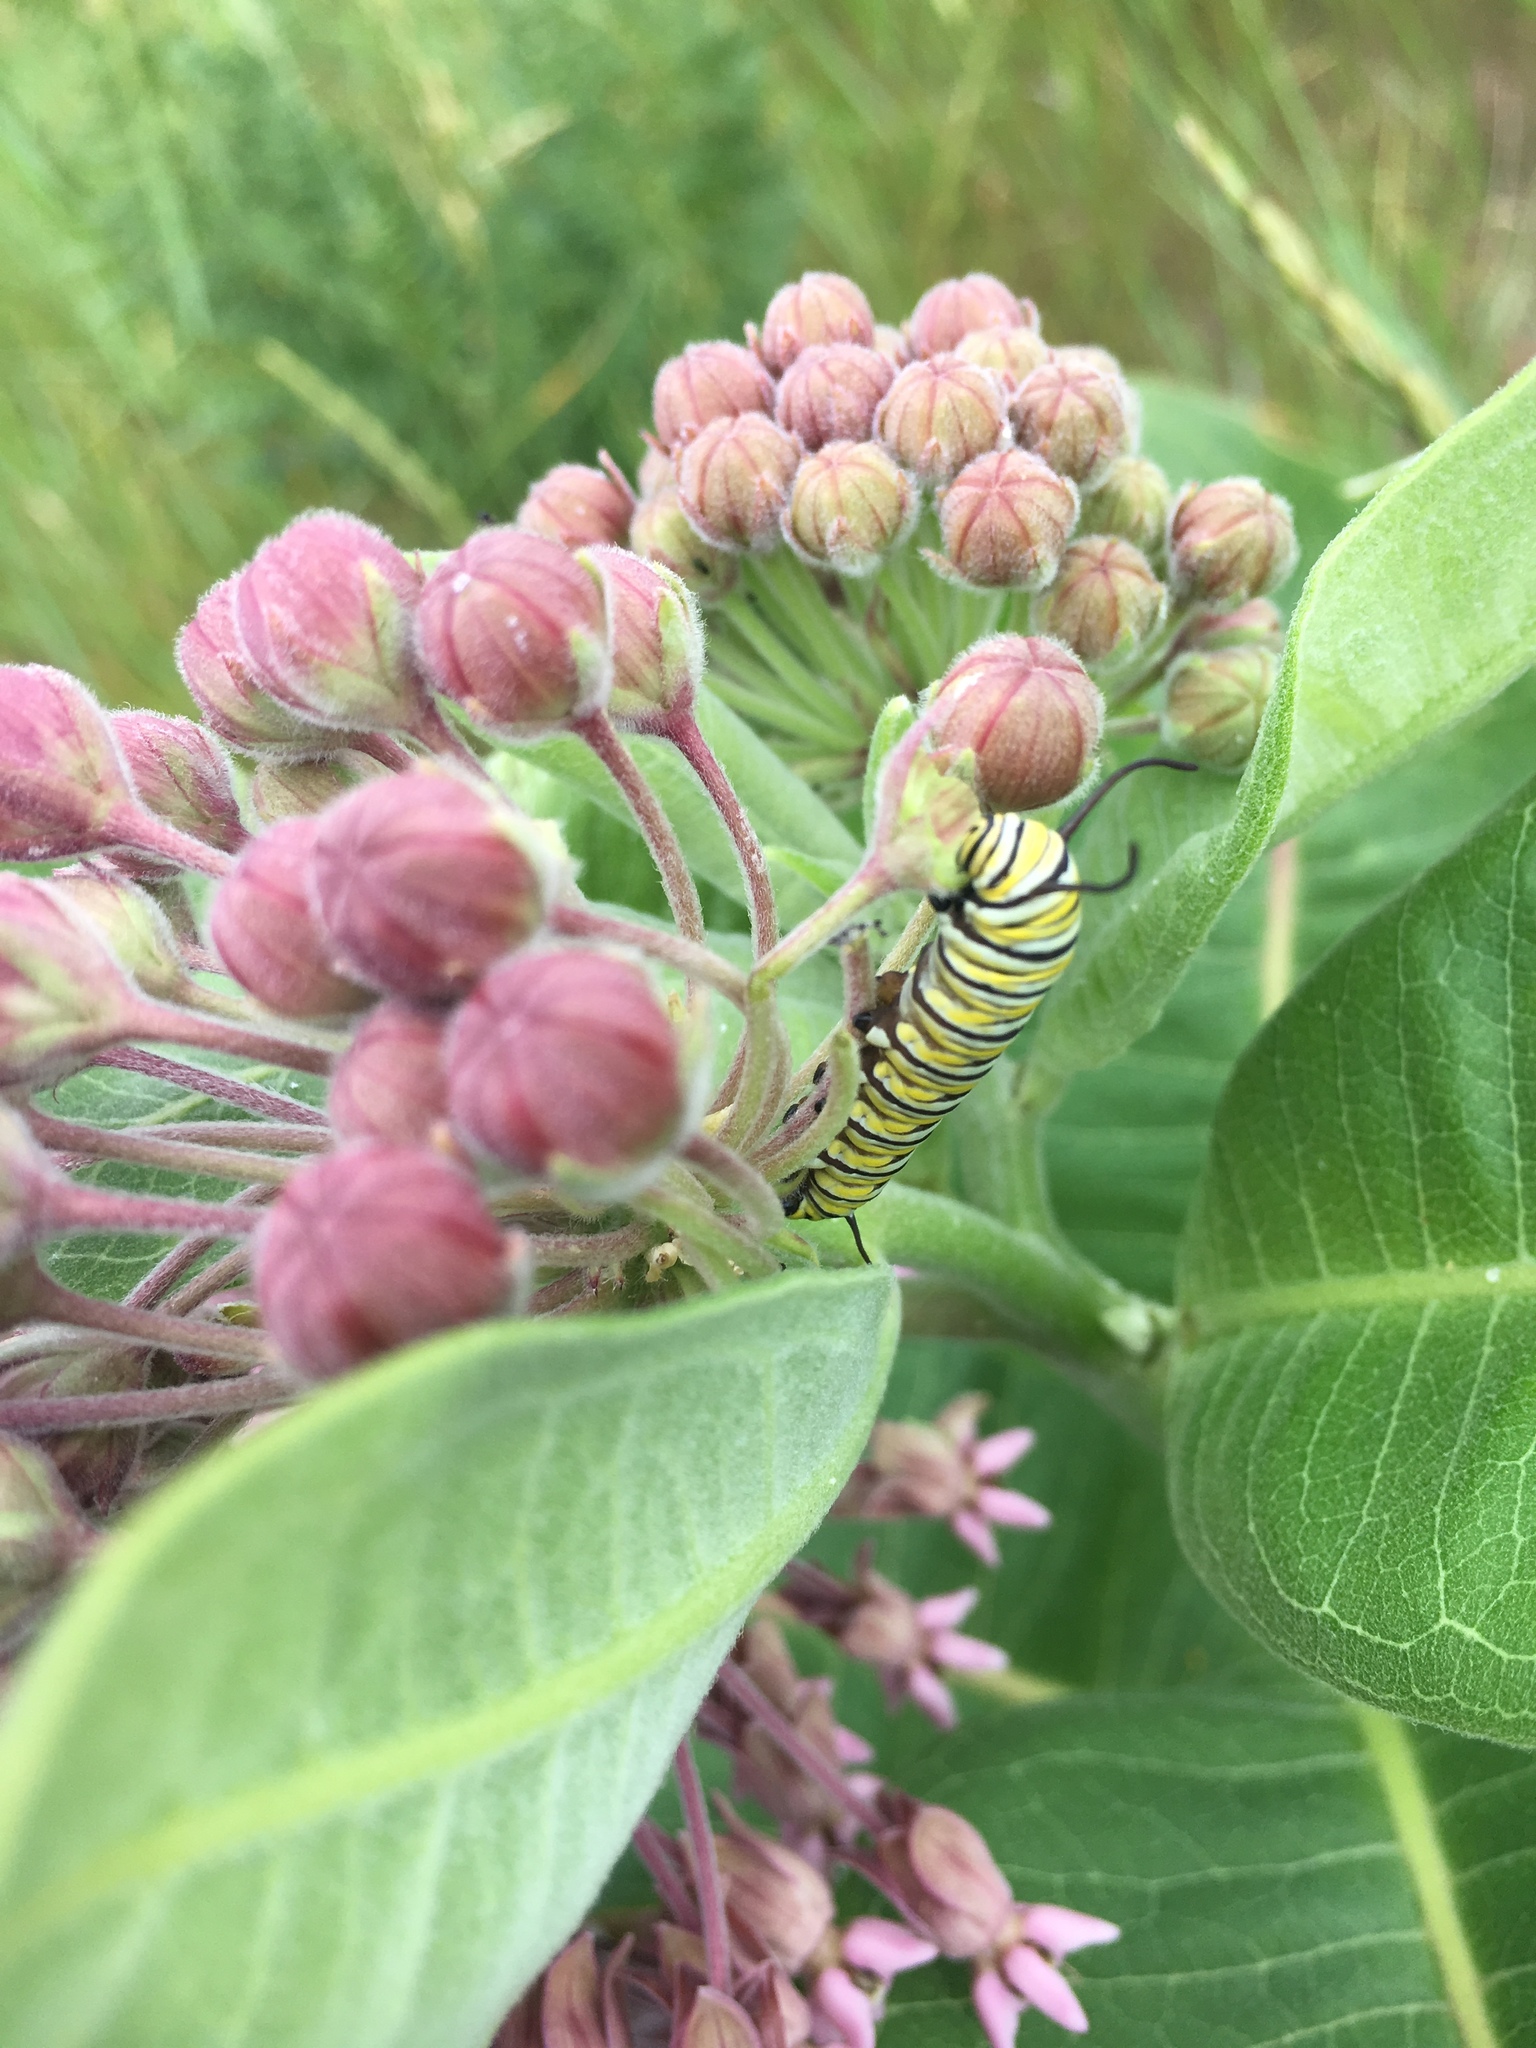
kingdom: Plantae
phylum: Tracheophyta
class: Magnoliopsida
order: Gentianales
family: Apocynaceae
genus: Asclepias
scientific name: Asclepias syriaca
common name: Common milkweed
